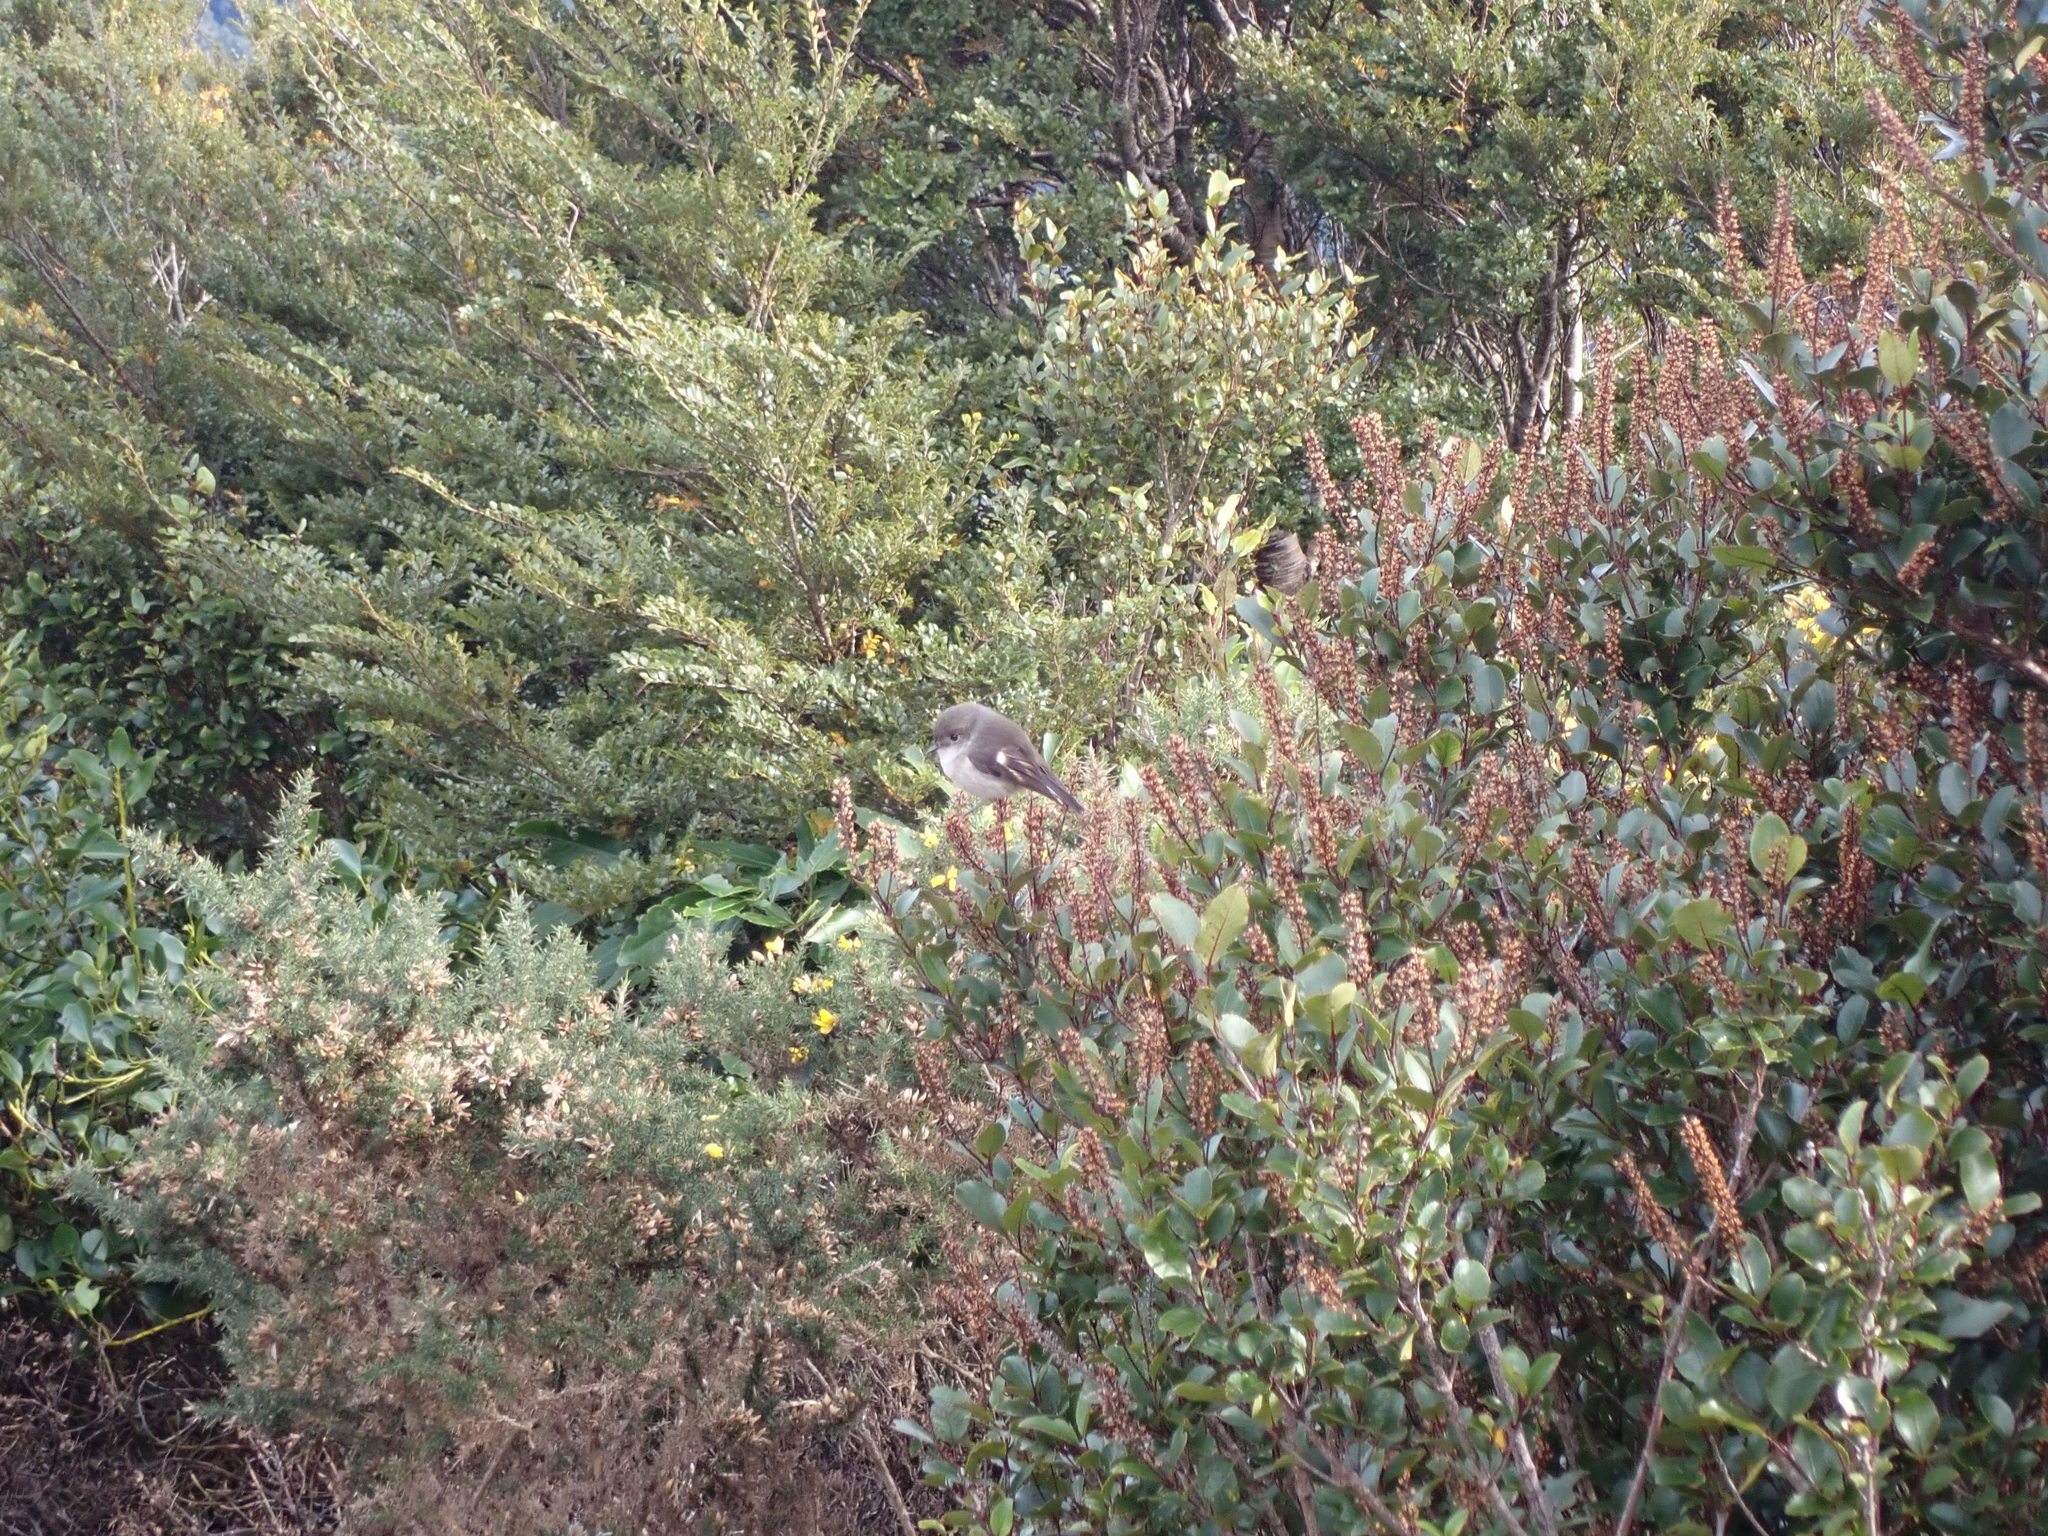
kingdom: Animalia
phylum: Chordata
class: Aves
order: Passeriformes
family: Petroicidae
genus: Petroica
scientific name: Petroica macrocephala
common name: Tomtit
